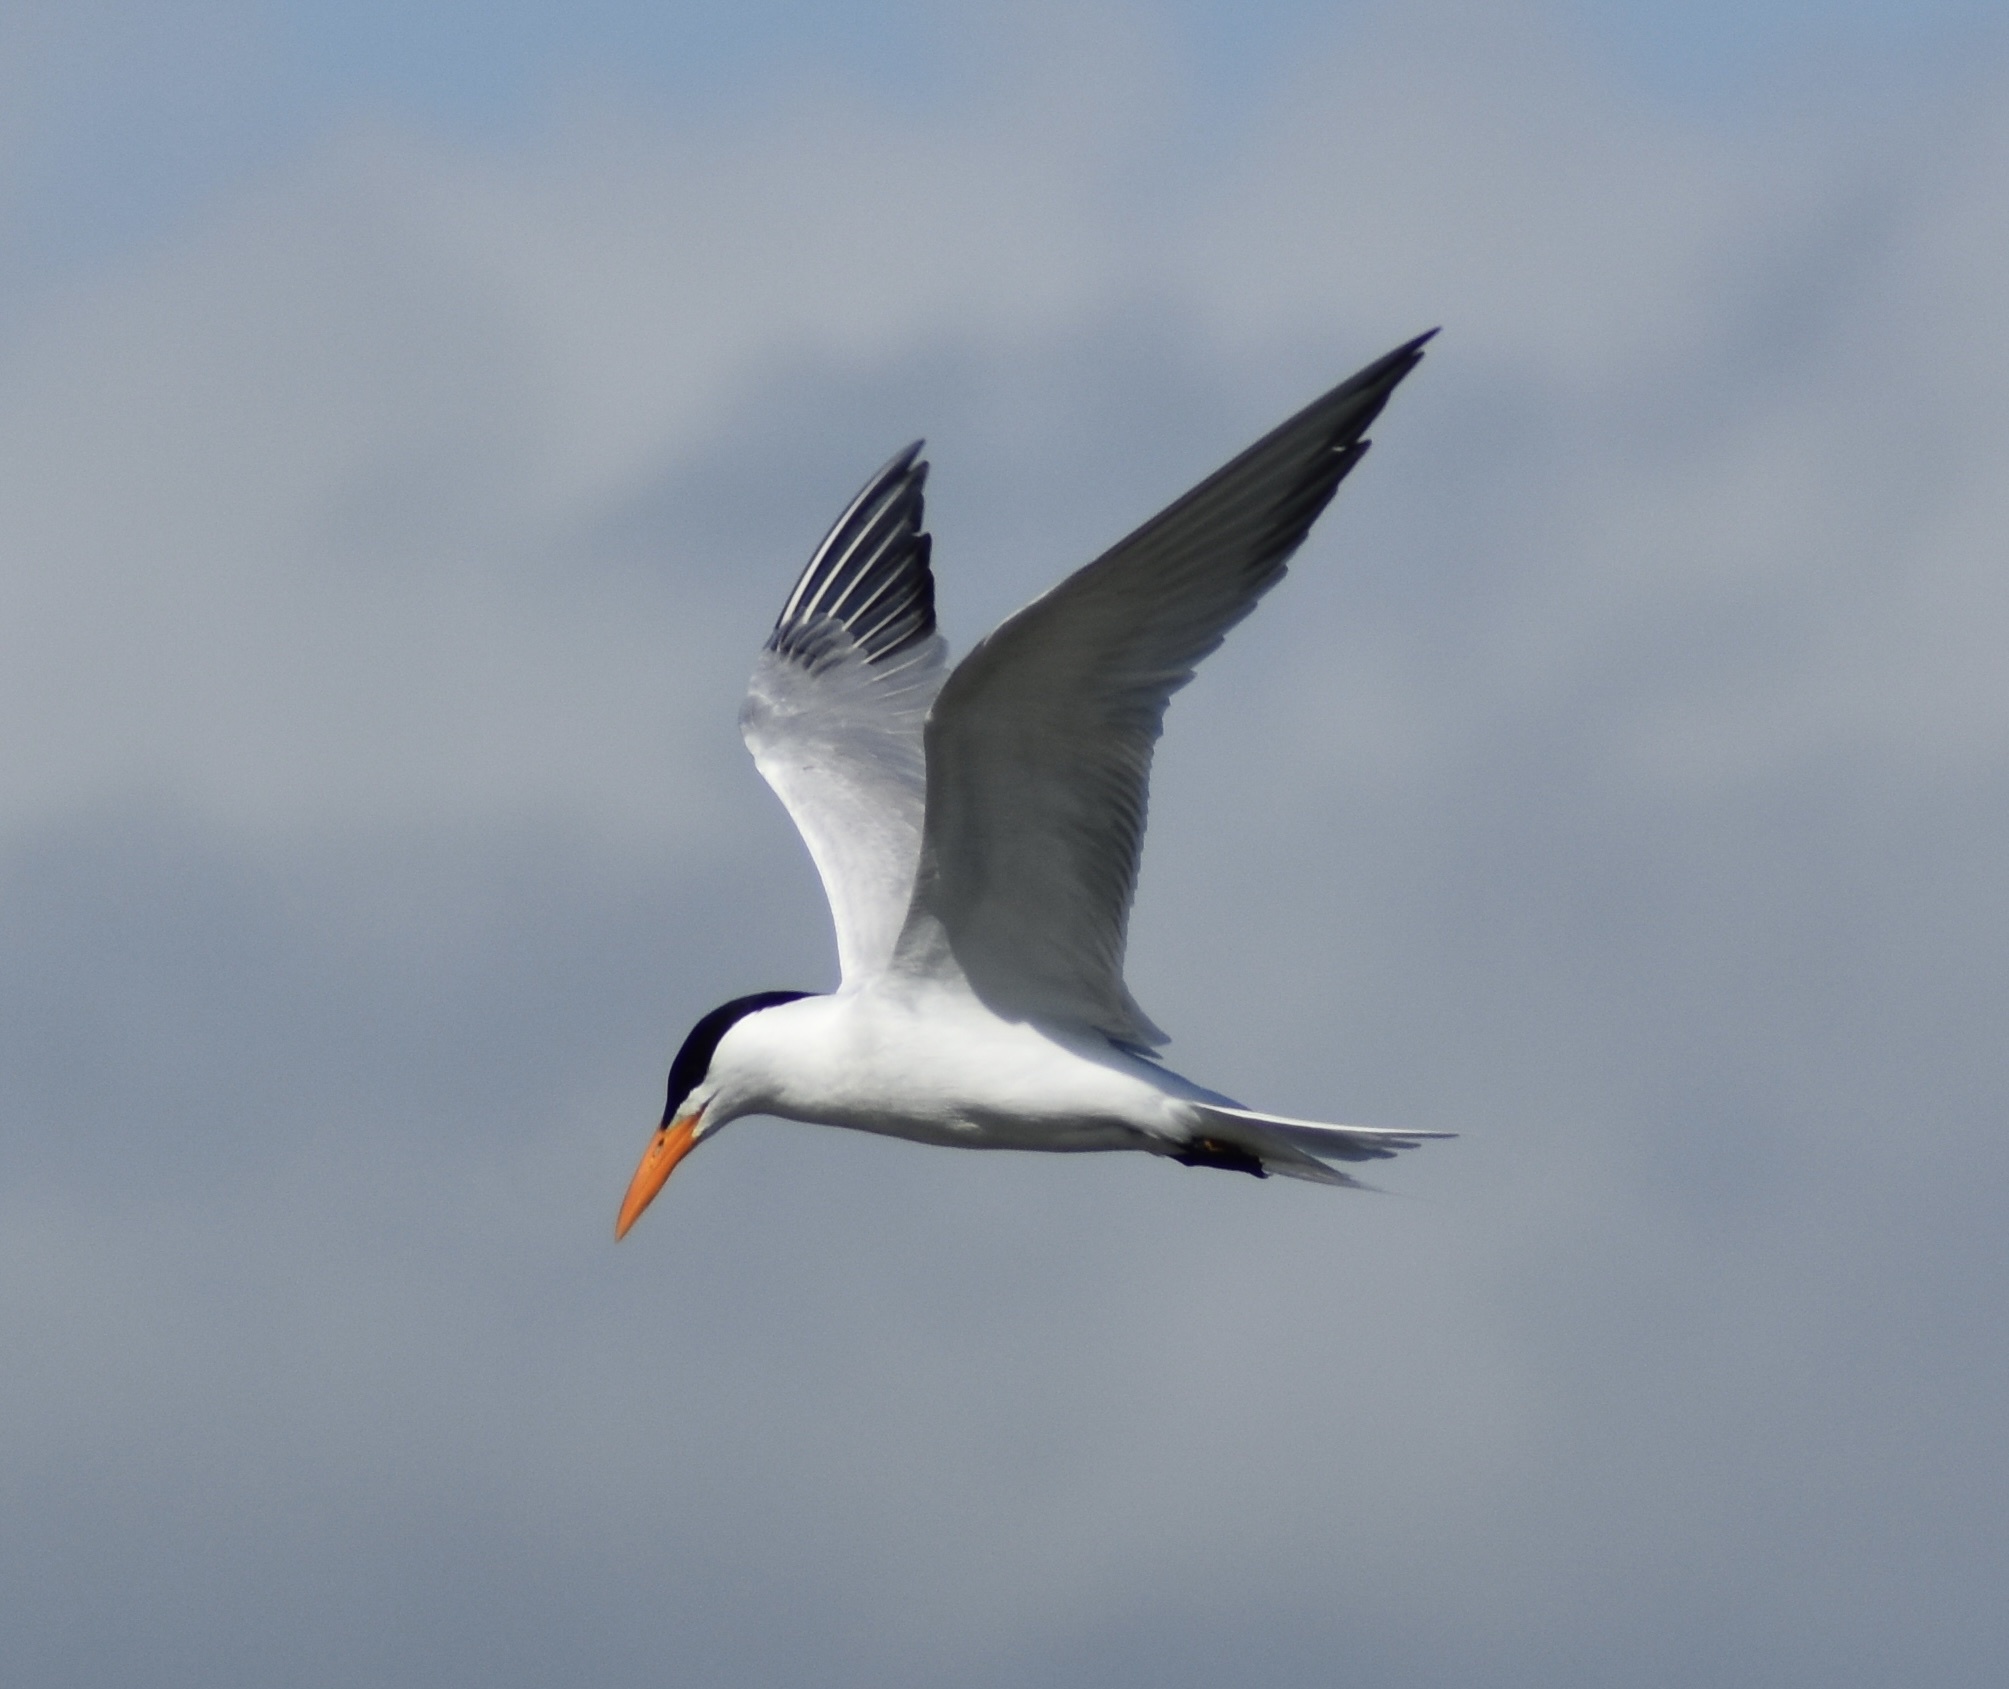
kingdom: Animalia
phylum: Chordata
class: Aves
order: Charadriiformes
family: Laridae
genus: Thalasseus
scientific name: Thalasseus maximus
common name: Royal tern
